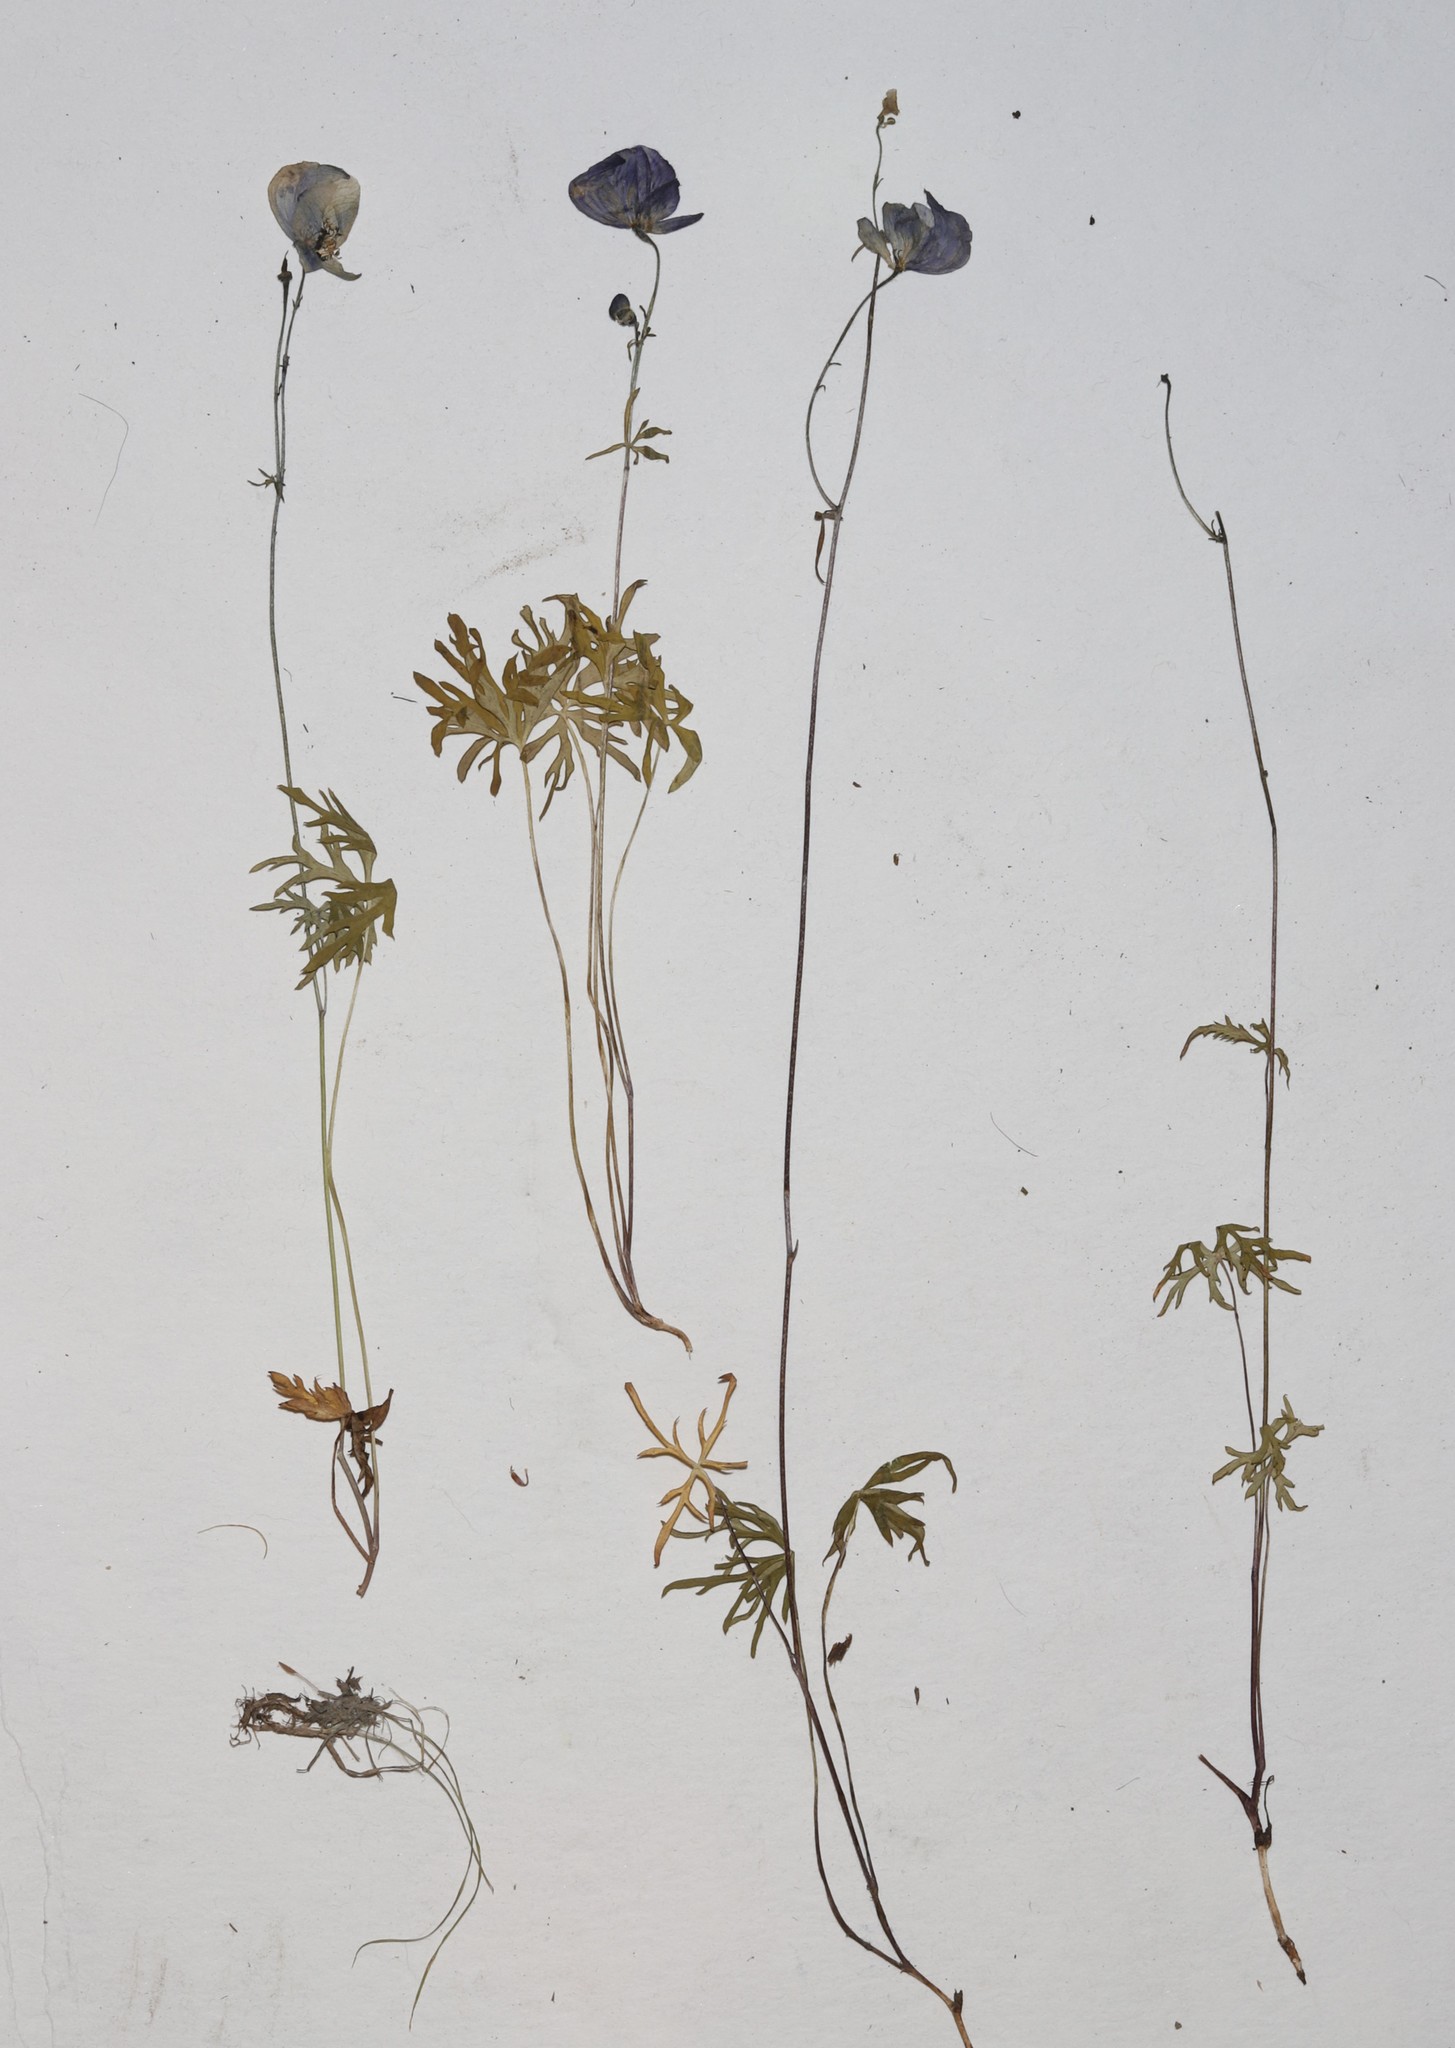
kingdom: Plantae
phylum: Tracheophyta
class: Magnoliopsida
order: Ranunculales
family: Ranunculaceae
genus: Aconitum
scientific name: Aconitum delphiniifolium
